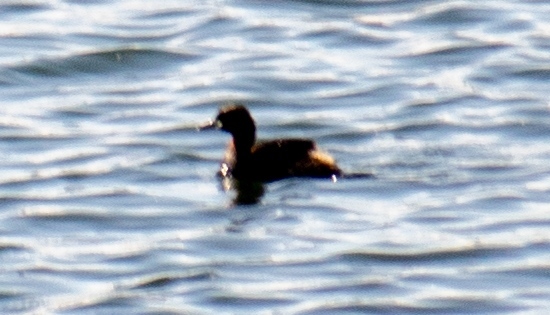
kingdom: Animalia
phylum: Chordata
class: Aves
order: Podicipediformes
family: Podicipedidae
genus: Tachybaptus
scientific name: Tachybaptus ruficollis
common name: Little grebe
